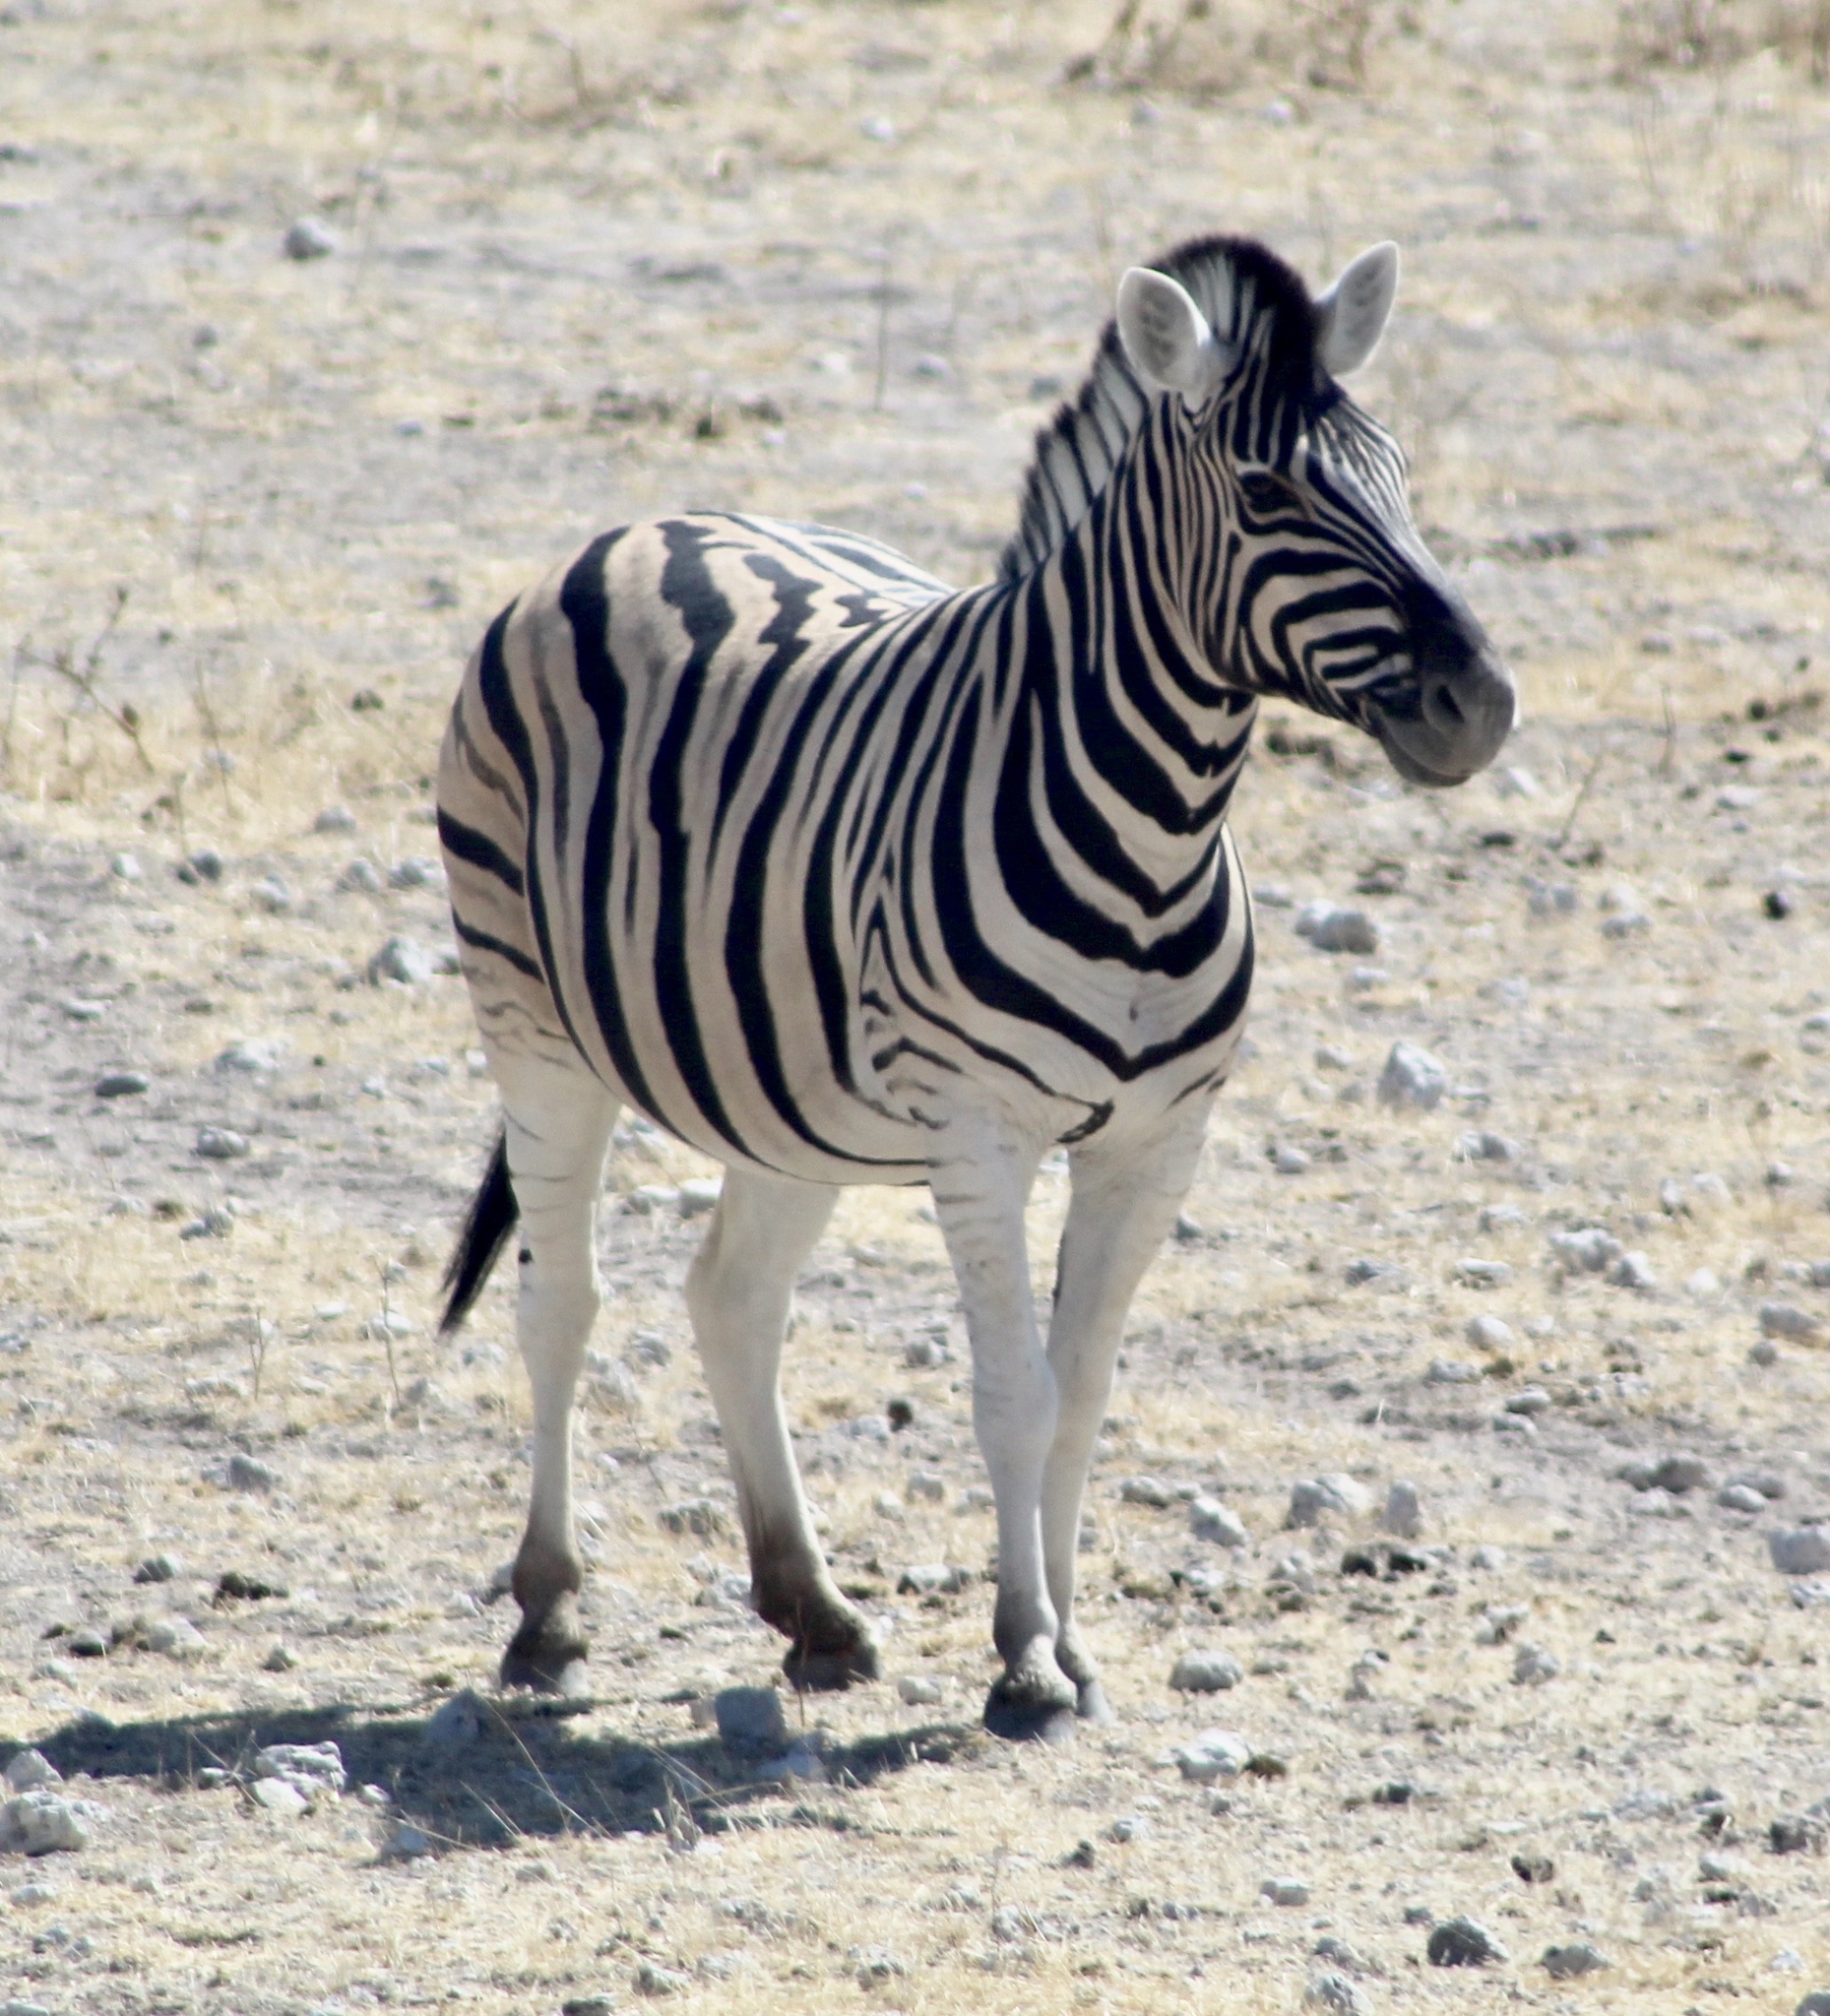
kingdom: Animalia
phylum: Chordata
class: Mammalia
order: Perissodactyla
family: Equidae
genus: Equus
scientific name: Equus quagga
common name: Plains zebra
